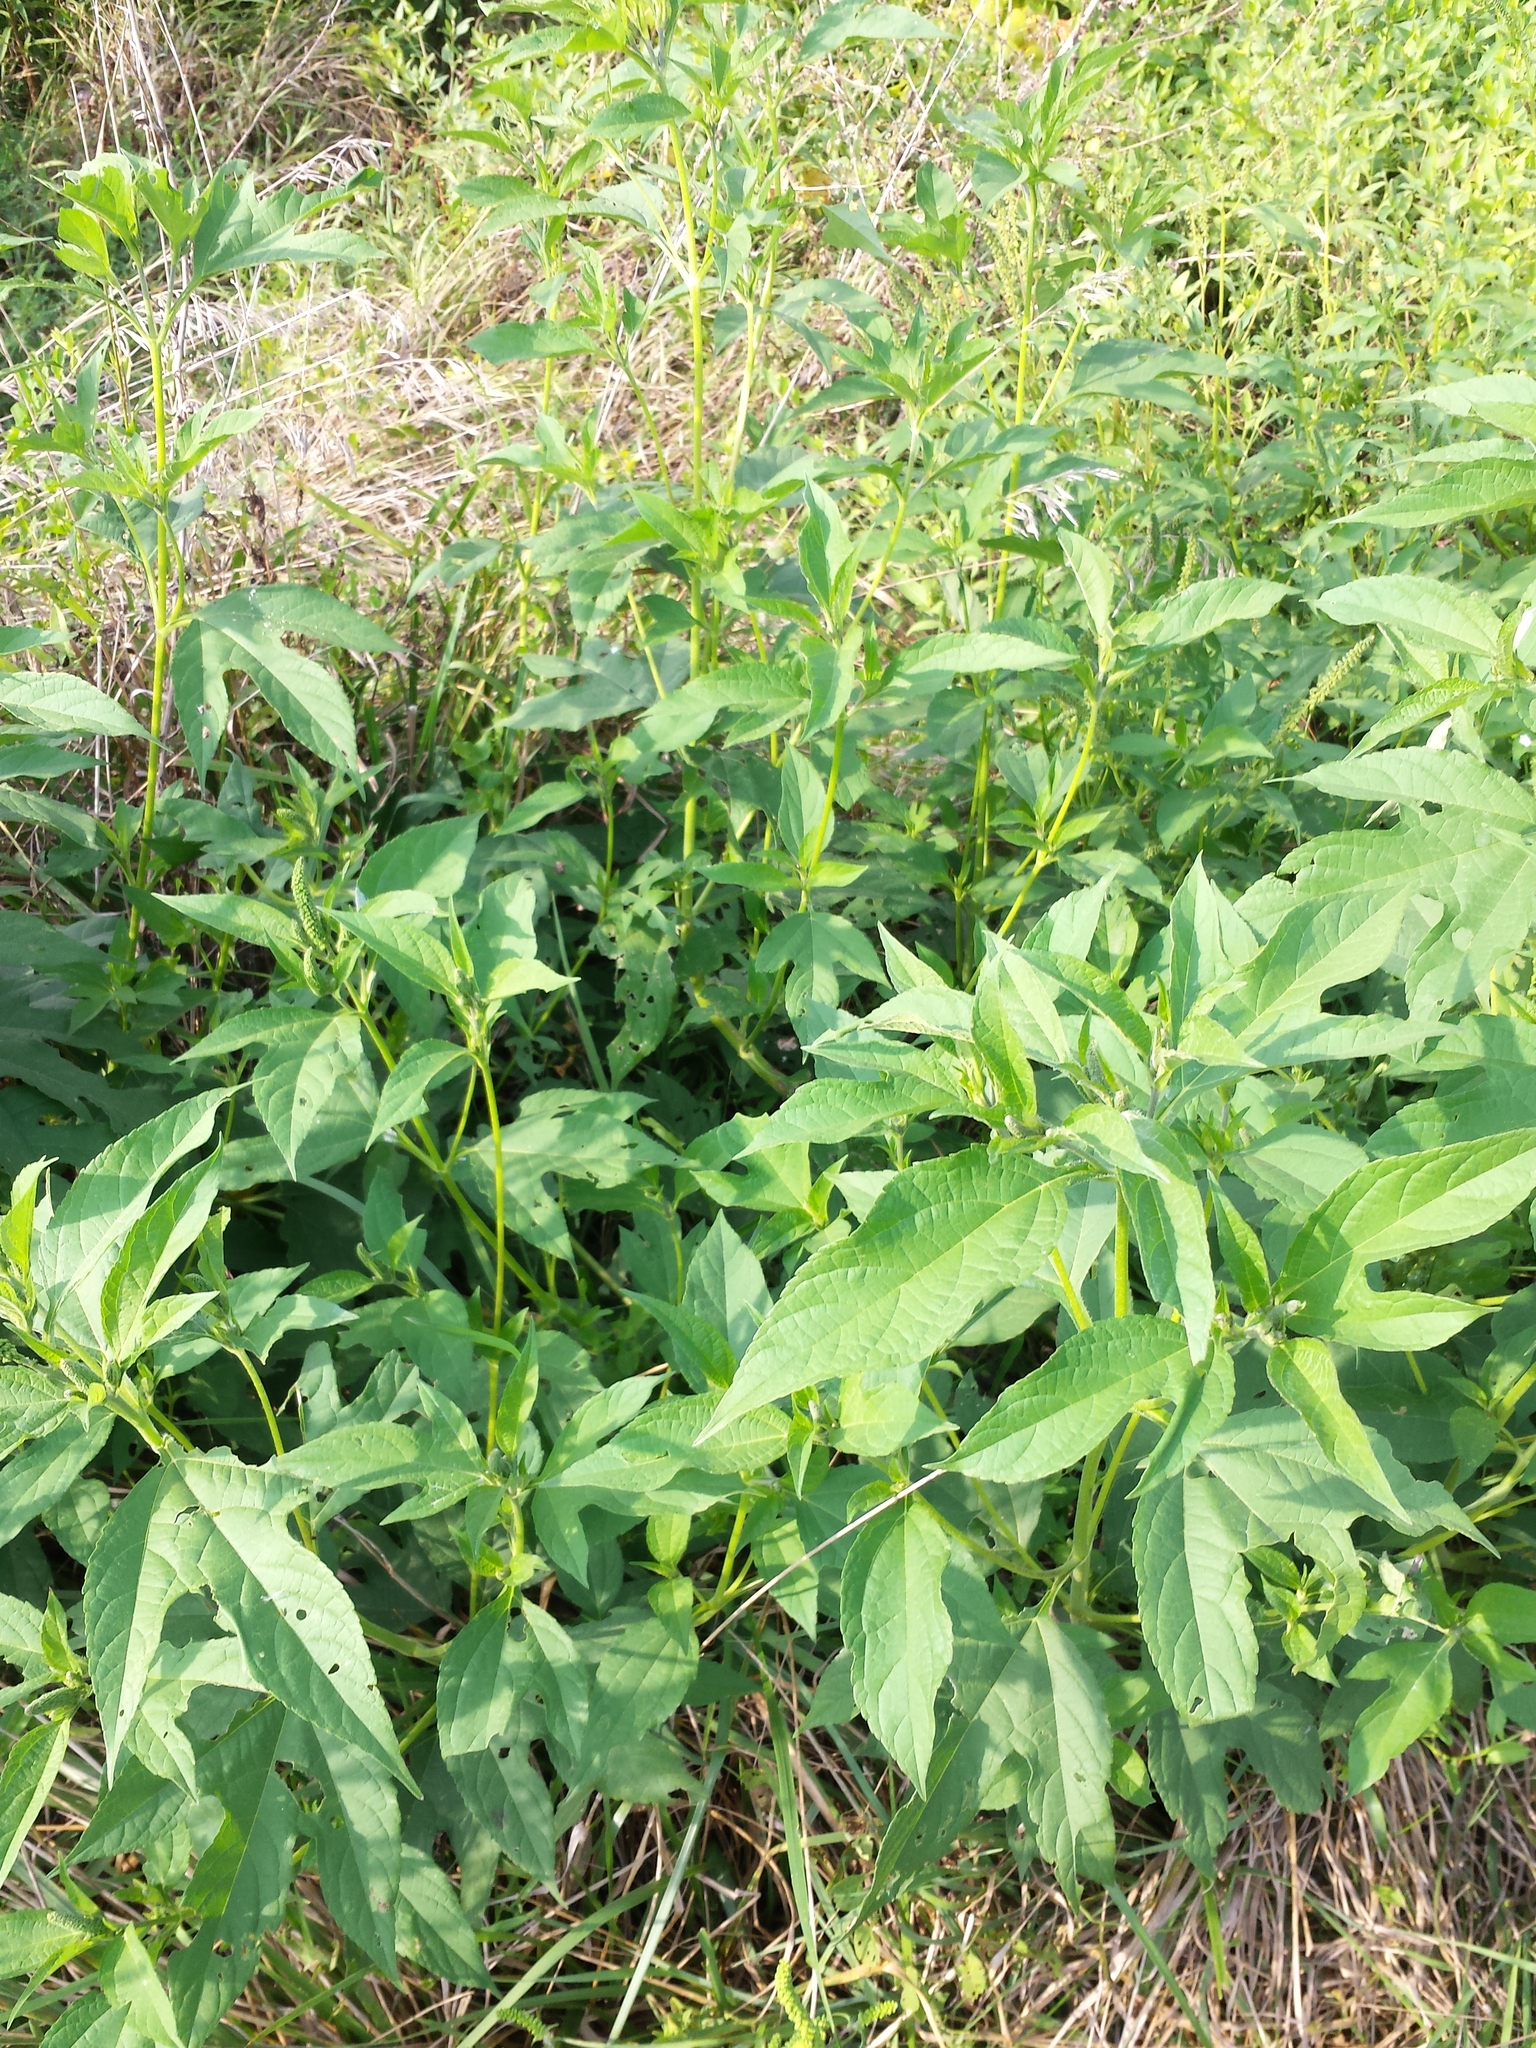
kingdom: Plantae
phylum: Tracheophyta
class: Magnoliopsida
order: Asterales
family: Asteraceae
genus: Ambrosia
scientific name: Ambrosia trifida
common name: Giant ragweed
